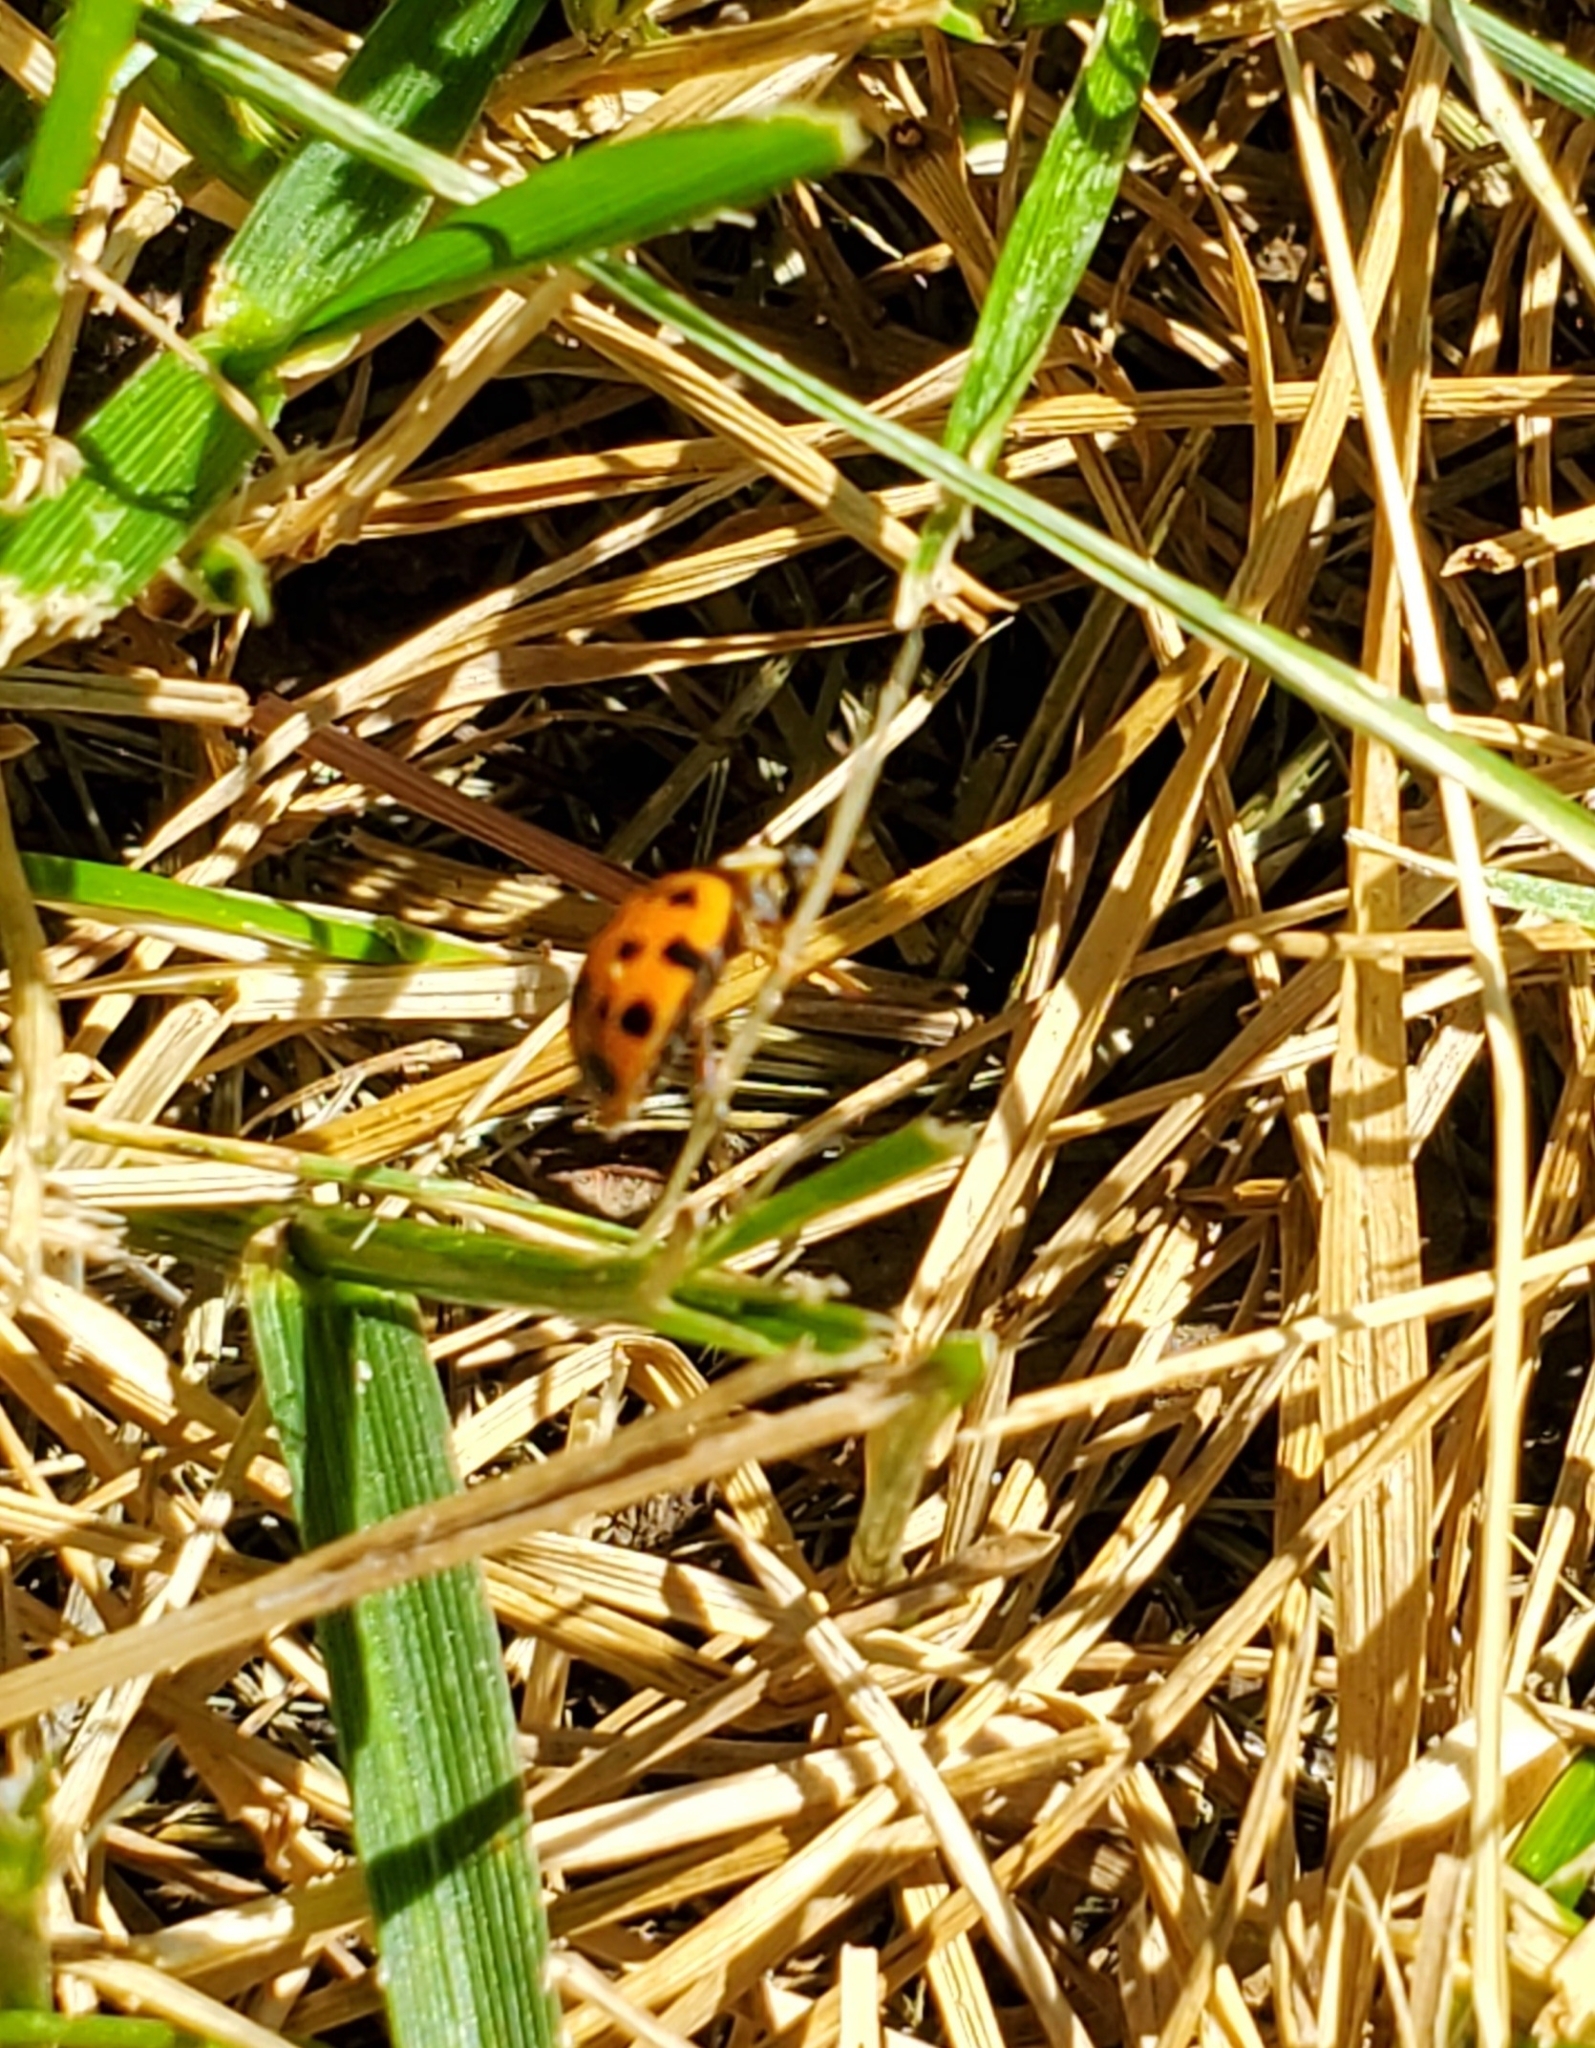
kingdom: Animalia
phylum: Arthropoda
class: Insecta
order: Coleoptera
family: Coccinellidae
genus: Harmonia
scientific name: Harmonia axyridis
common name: Harlequin ladybird
